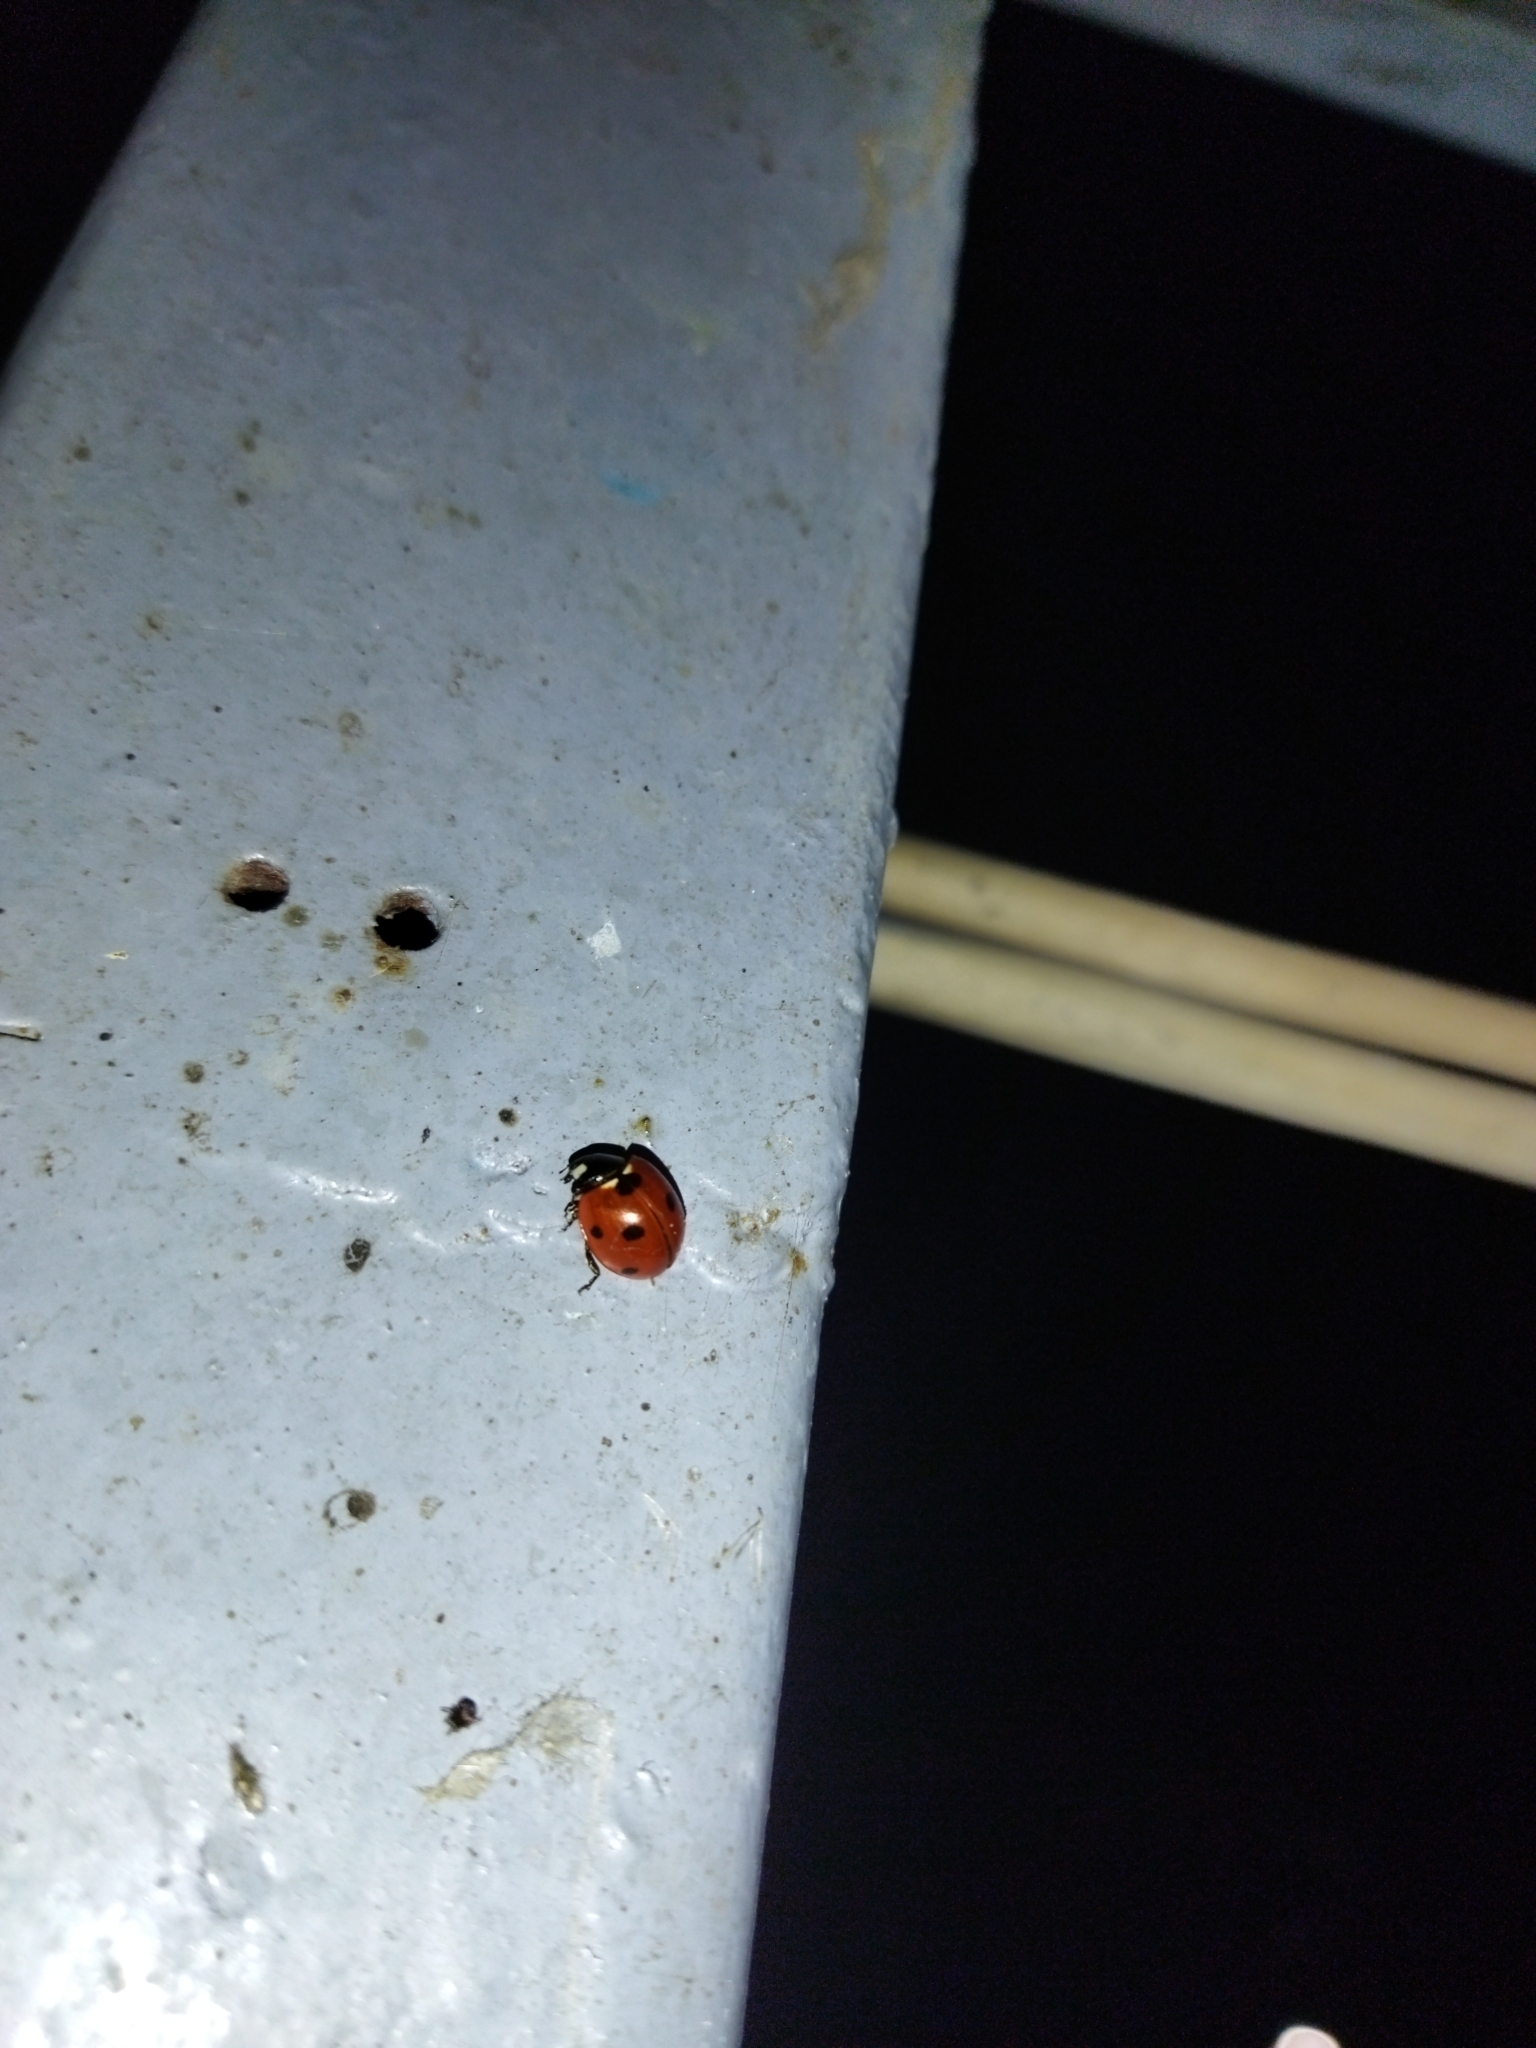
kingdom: Animalia
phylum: Arthropoda
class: Insecta
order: Coleoptera
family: Coccinellidae
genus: Coccinella
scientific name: Coccinella septempunctata
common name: Sevenspotted lady beetle
